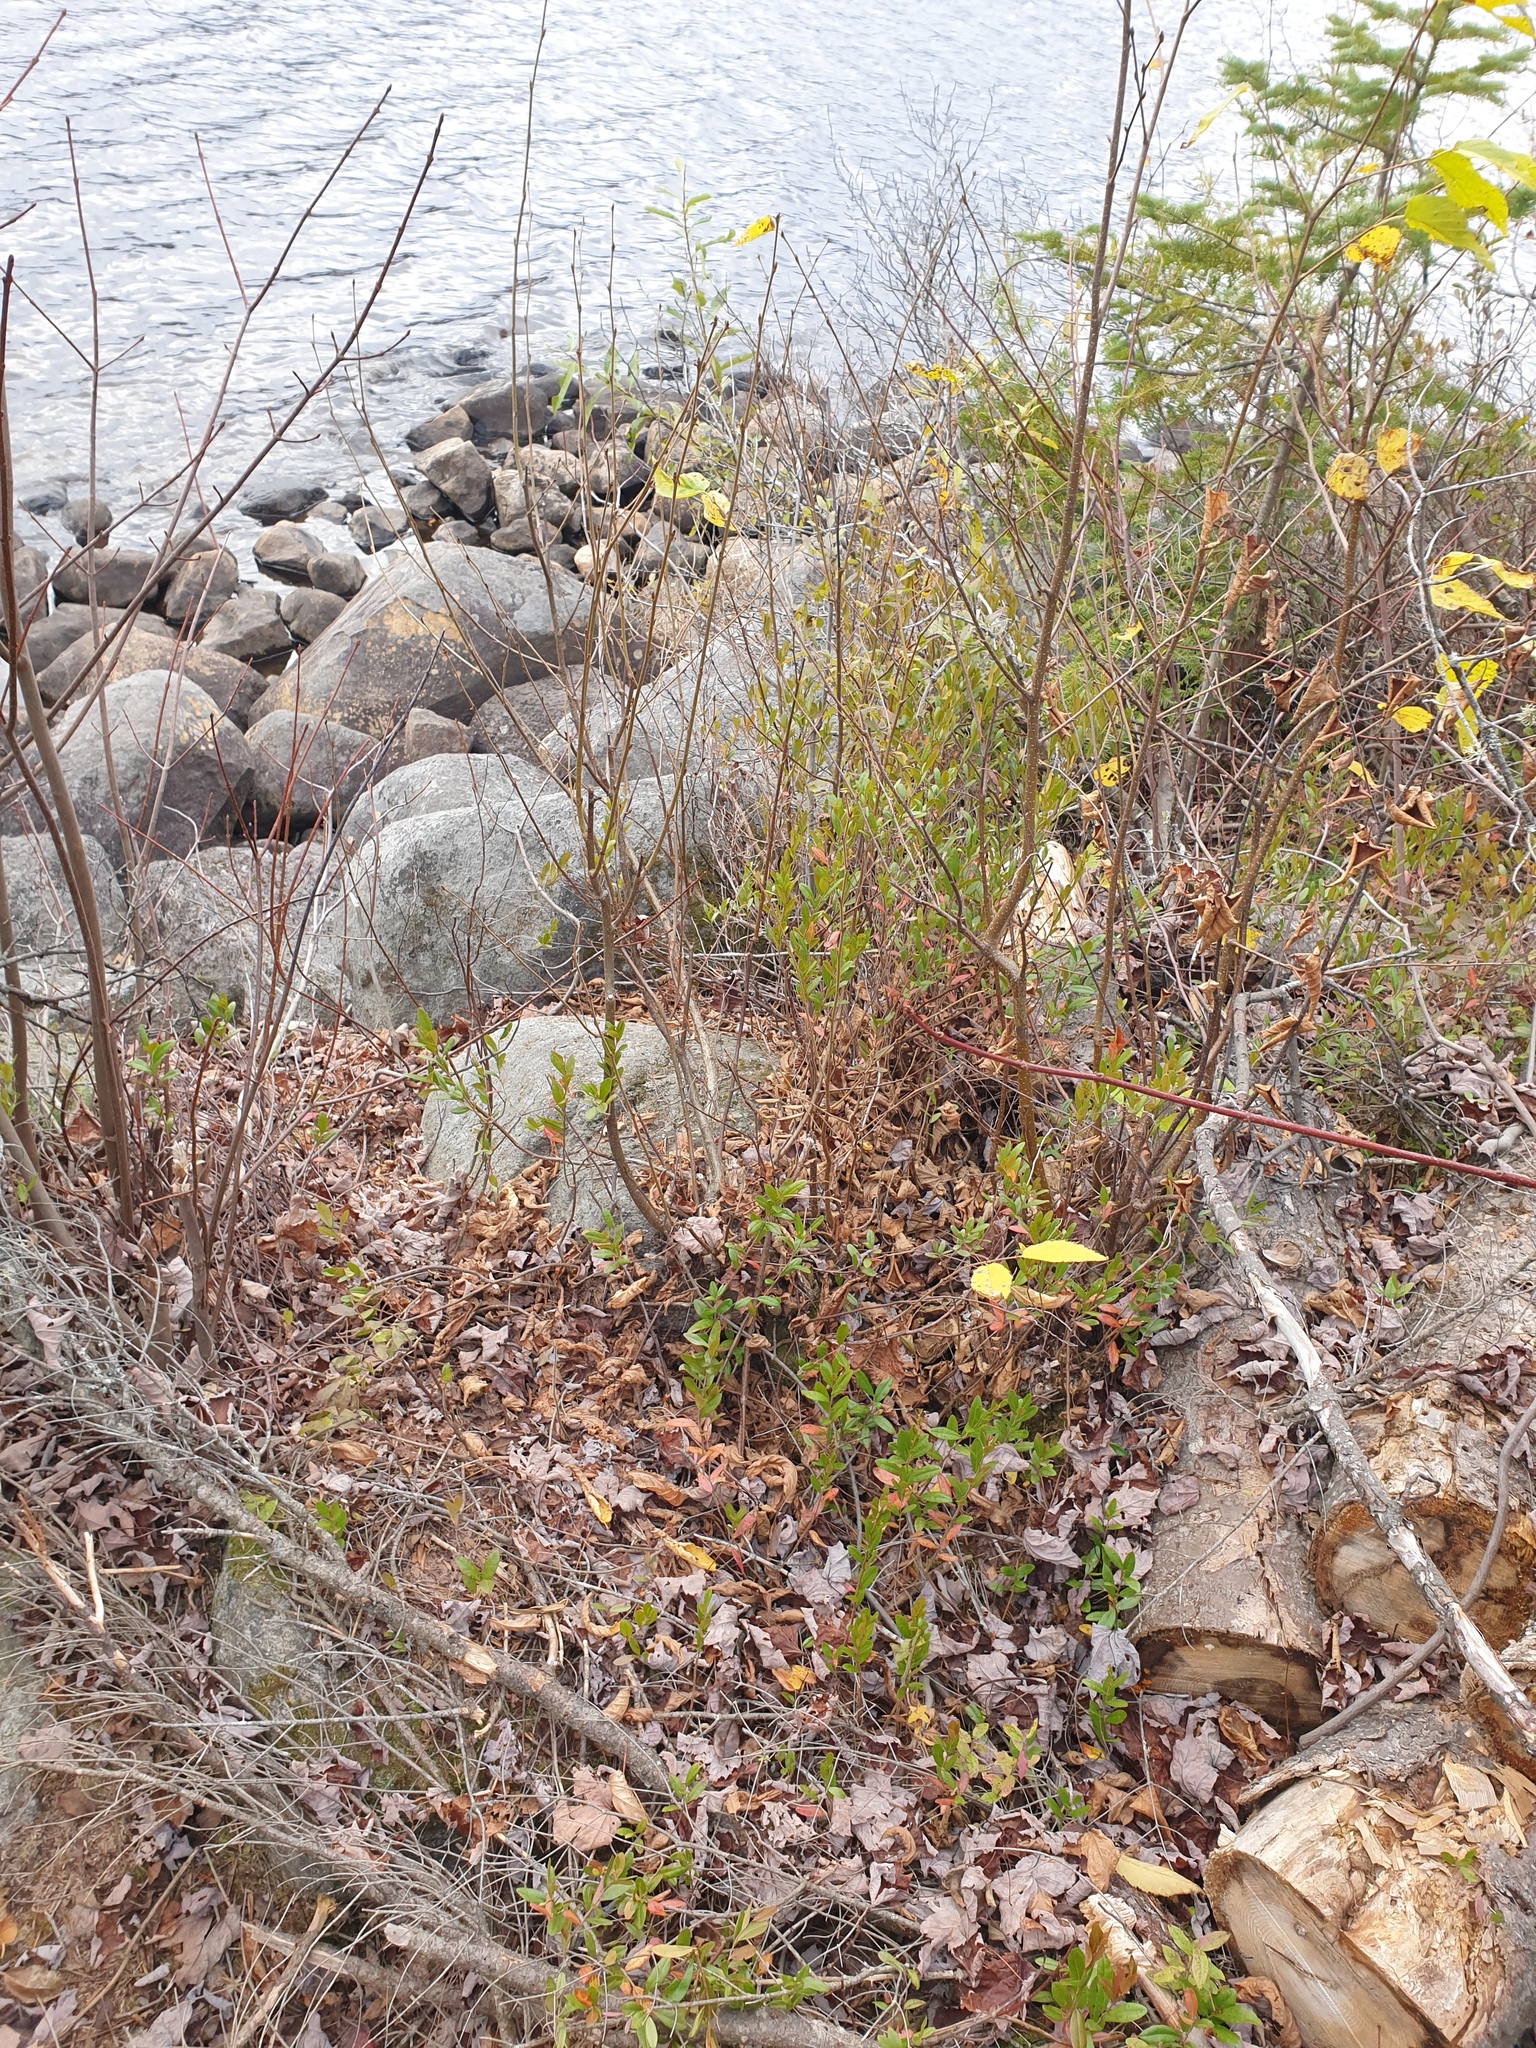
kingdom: Plantae
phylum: Tracheophyta
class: Magnoliopsida
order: Ericales
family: Ericaceae
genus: Chamaedaphne
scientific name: Chamaedaphne calyculata
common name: Leatherleaf
